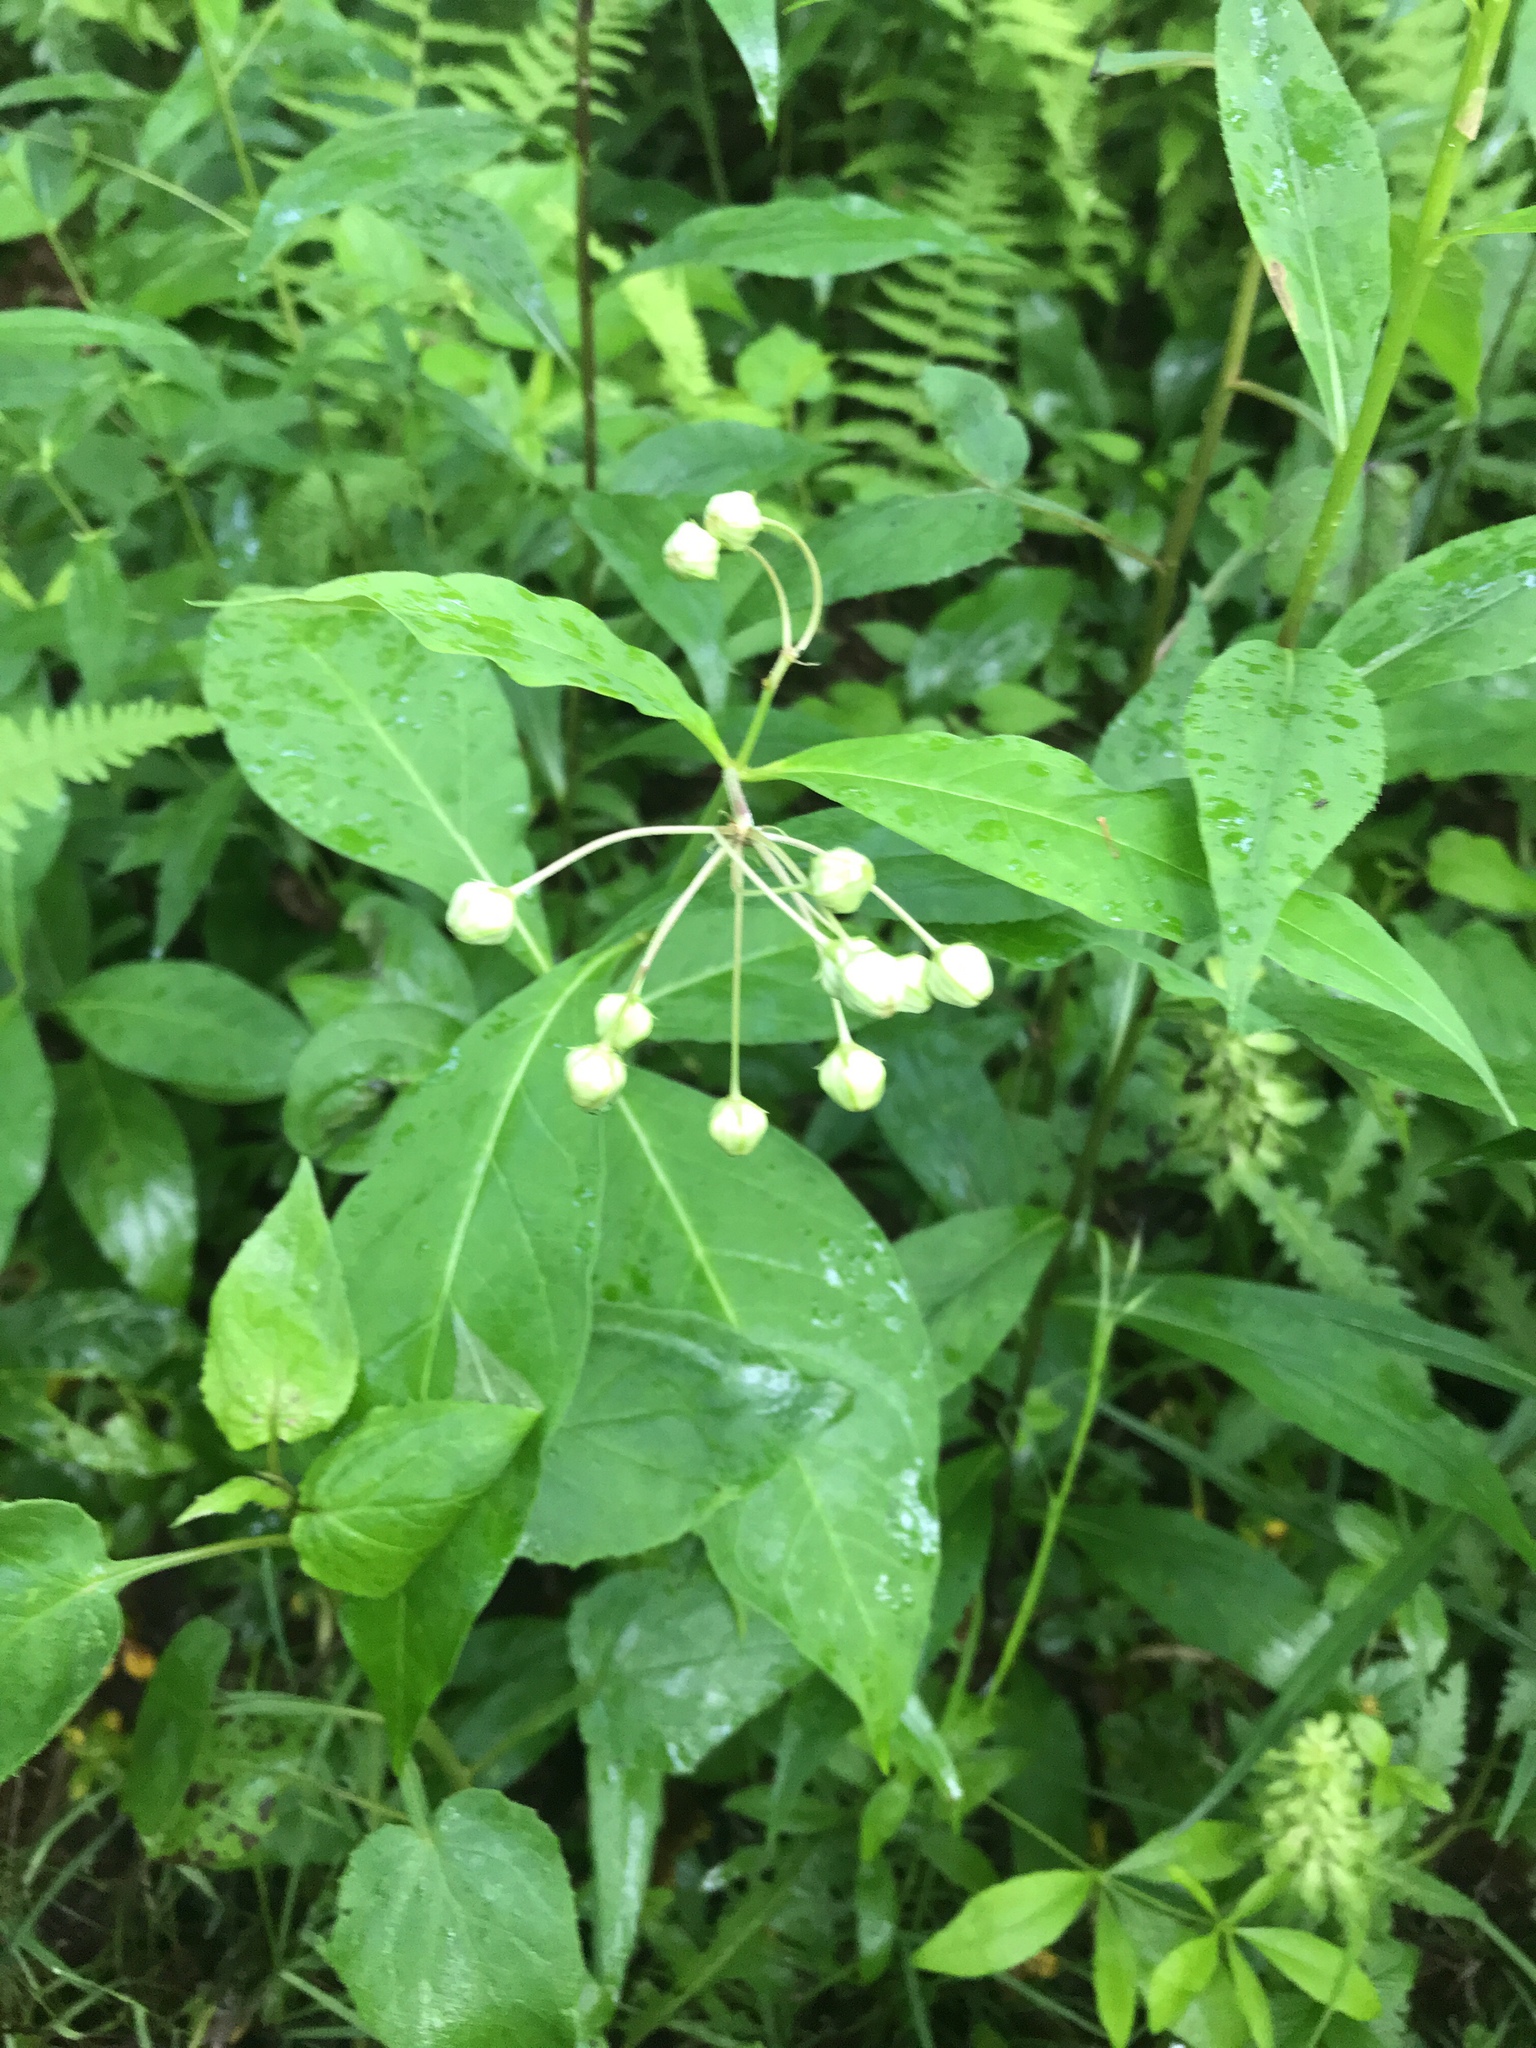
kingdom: Plantae
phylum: Tracheophyta
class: Magnoliopsida
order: Gentianales
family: Apocynaceae
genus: Asclepias
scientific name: Asclepias exaltata
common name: Poke milkweed
